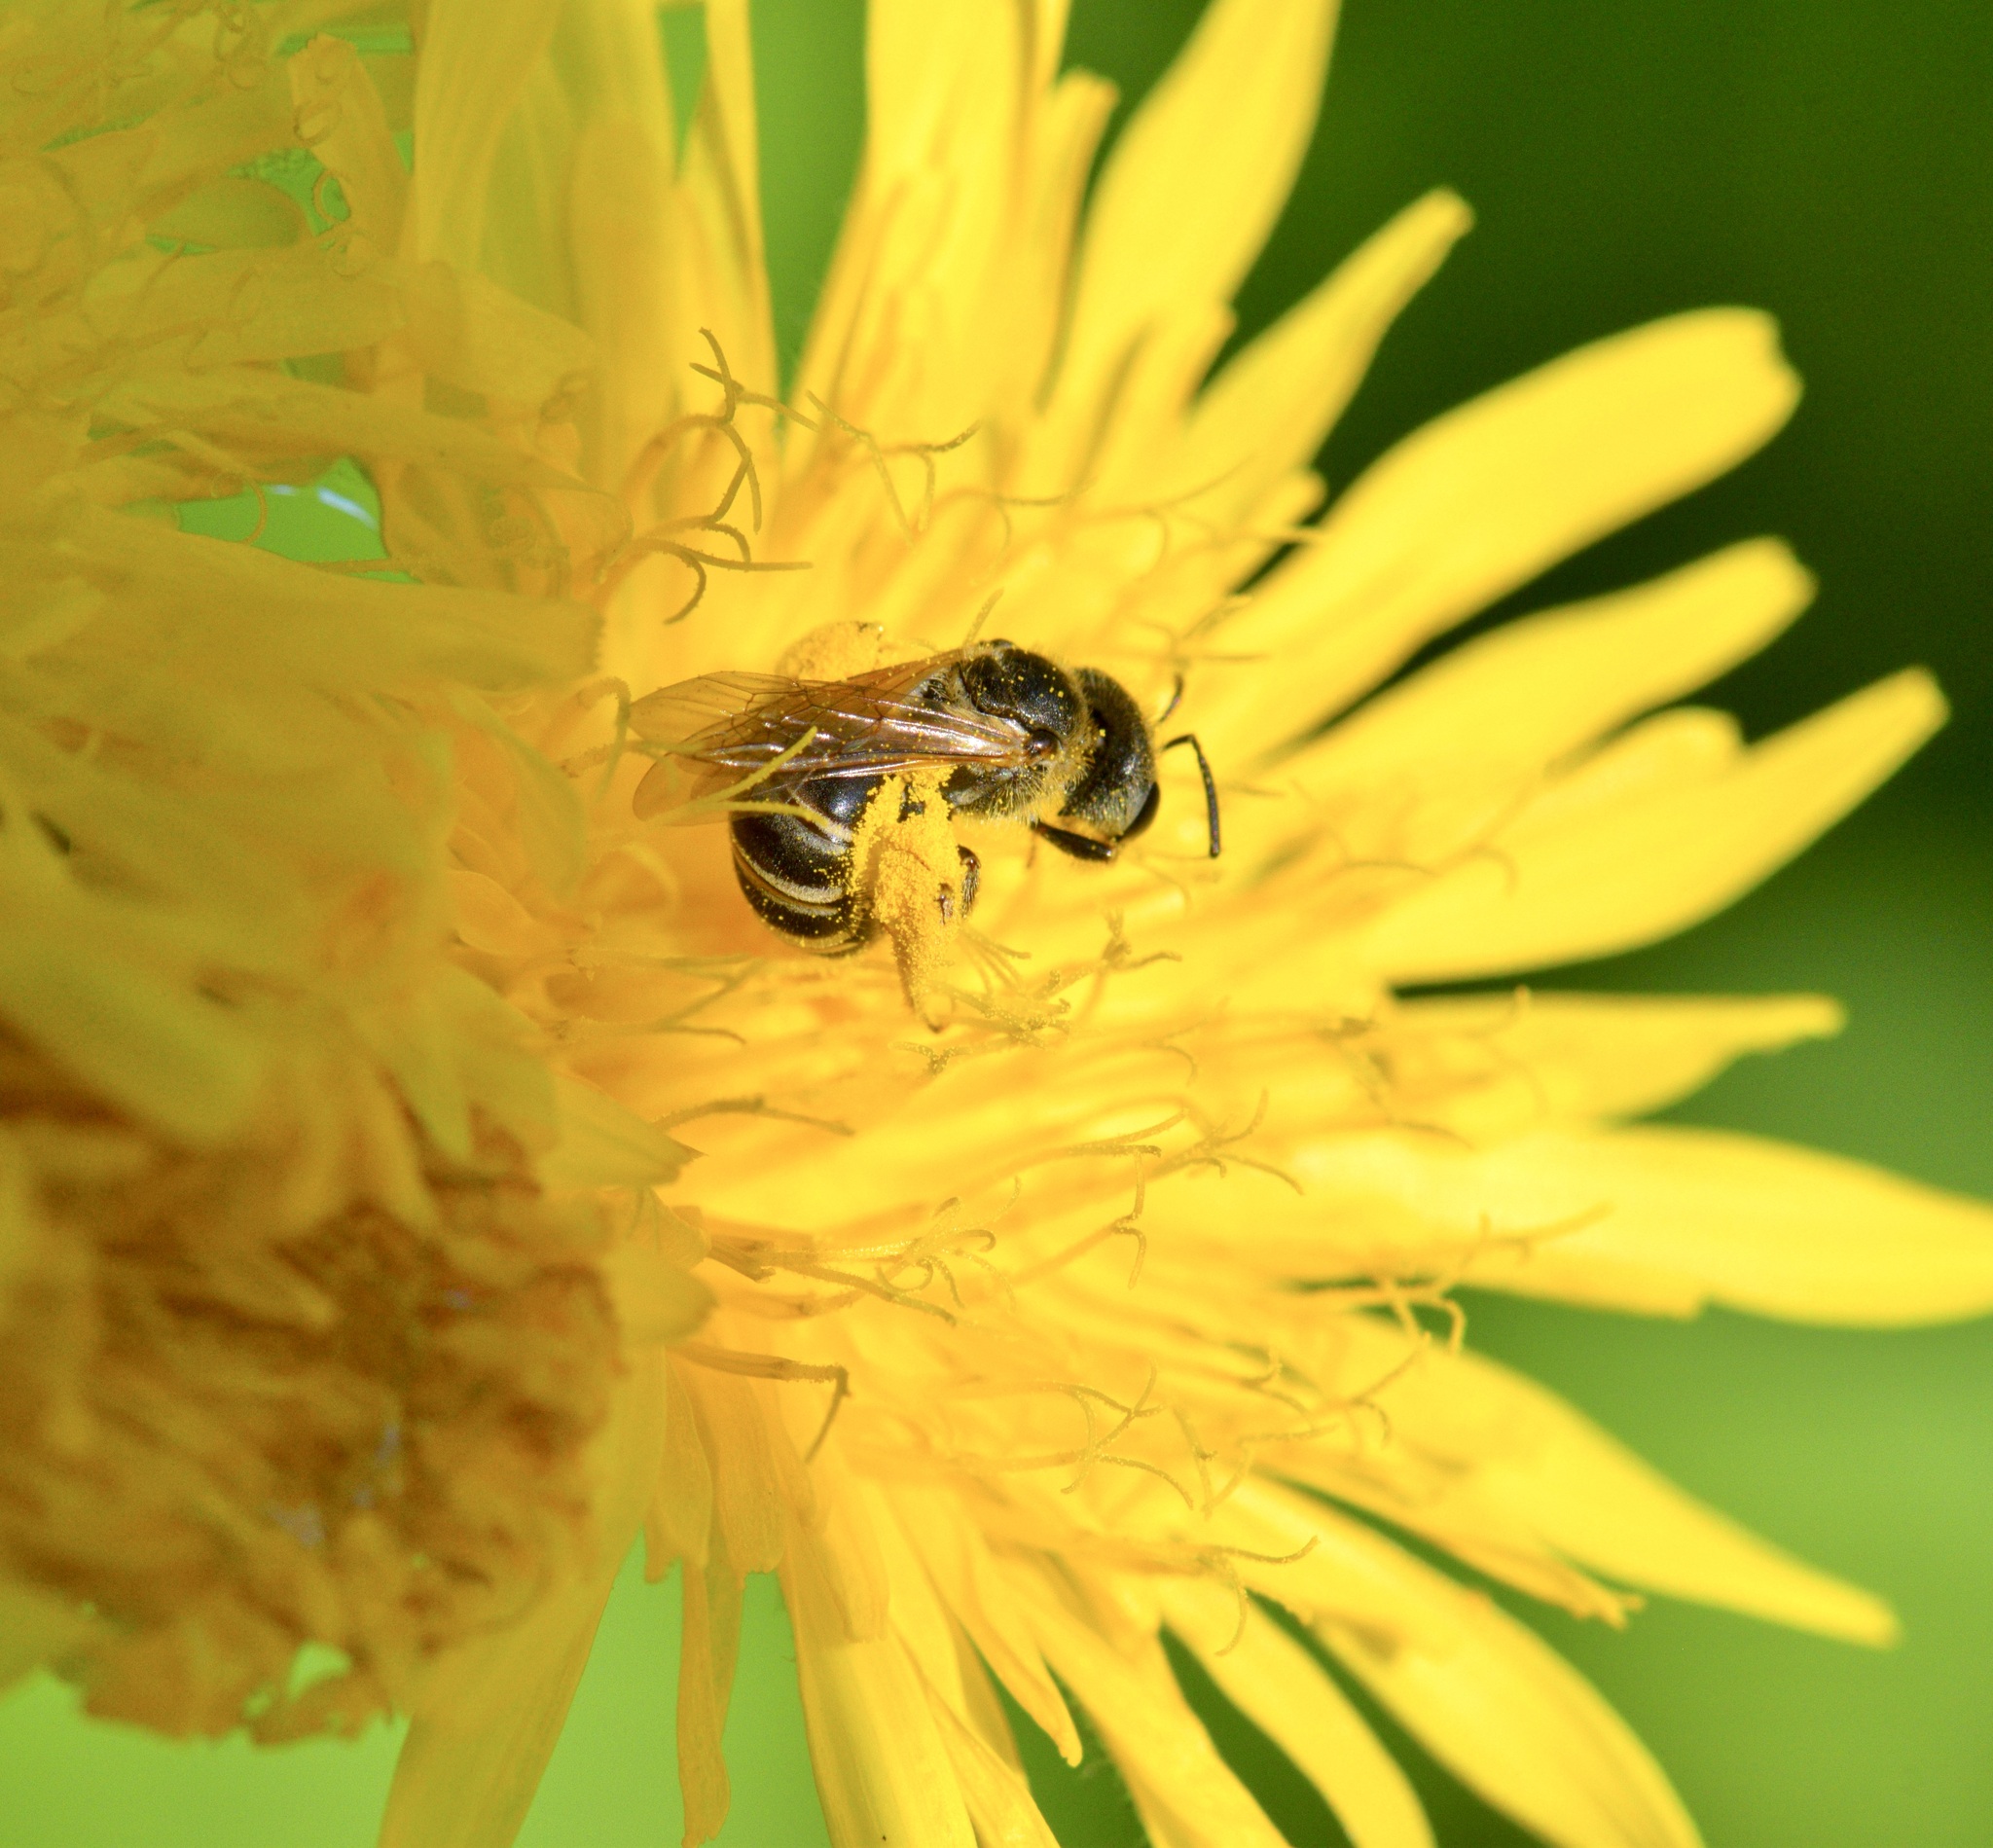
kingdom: Animalia
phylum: Arthropoda
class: Insecta
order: Hymenoptera
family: Halictidae
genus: Halictus
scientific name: Halictus ligatus
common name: Ligated furrow bee
